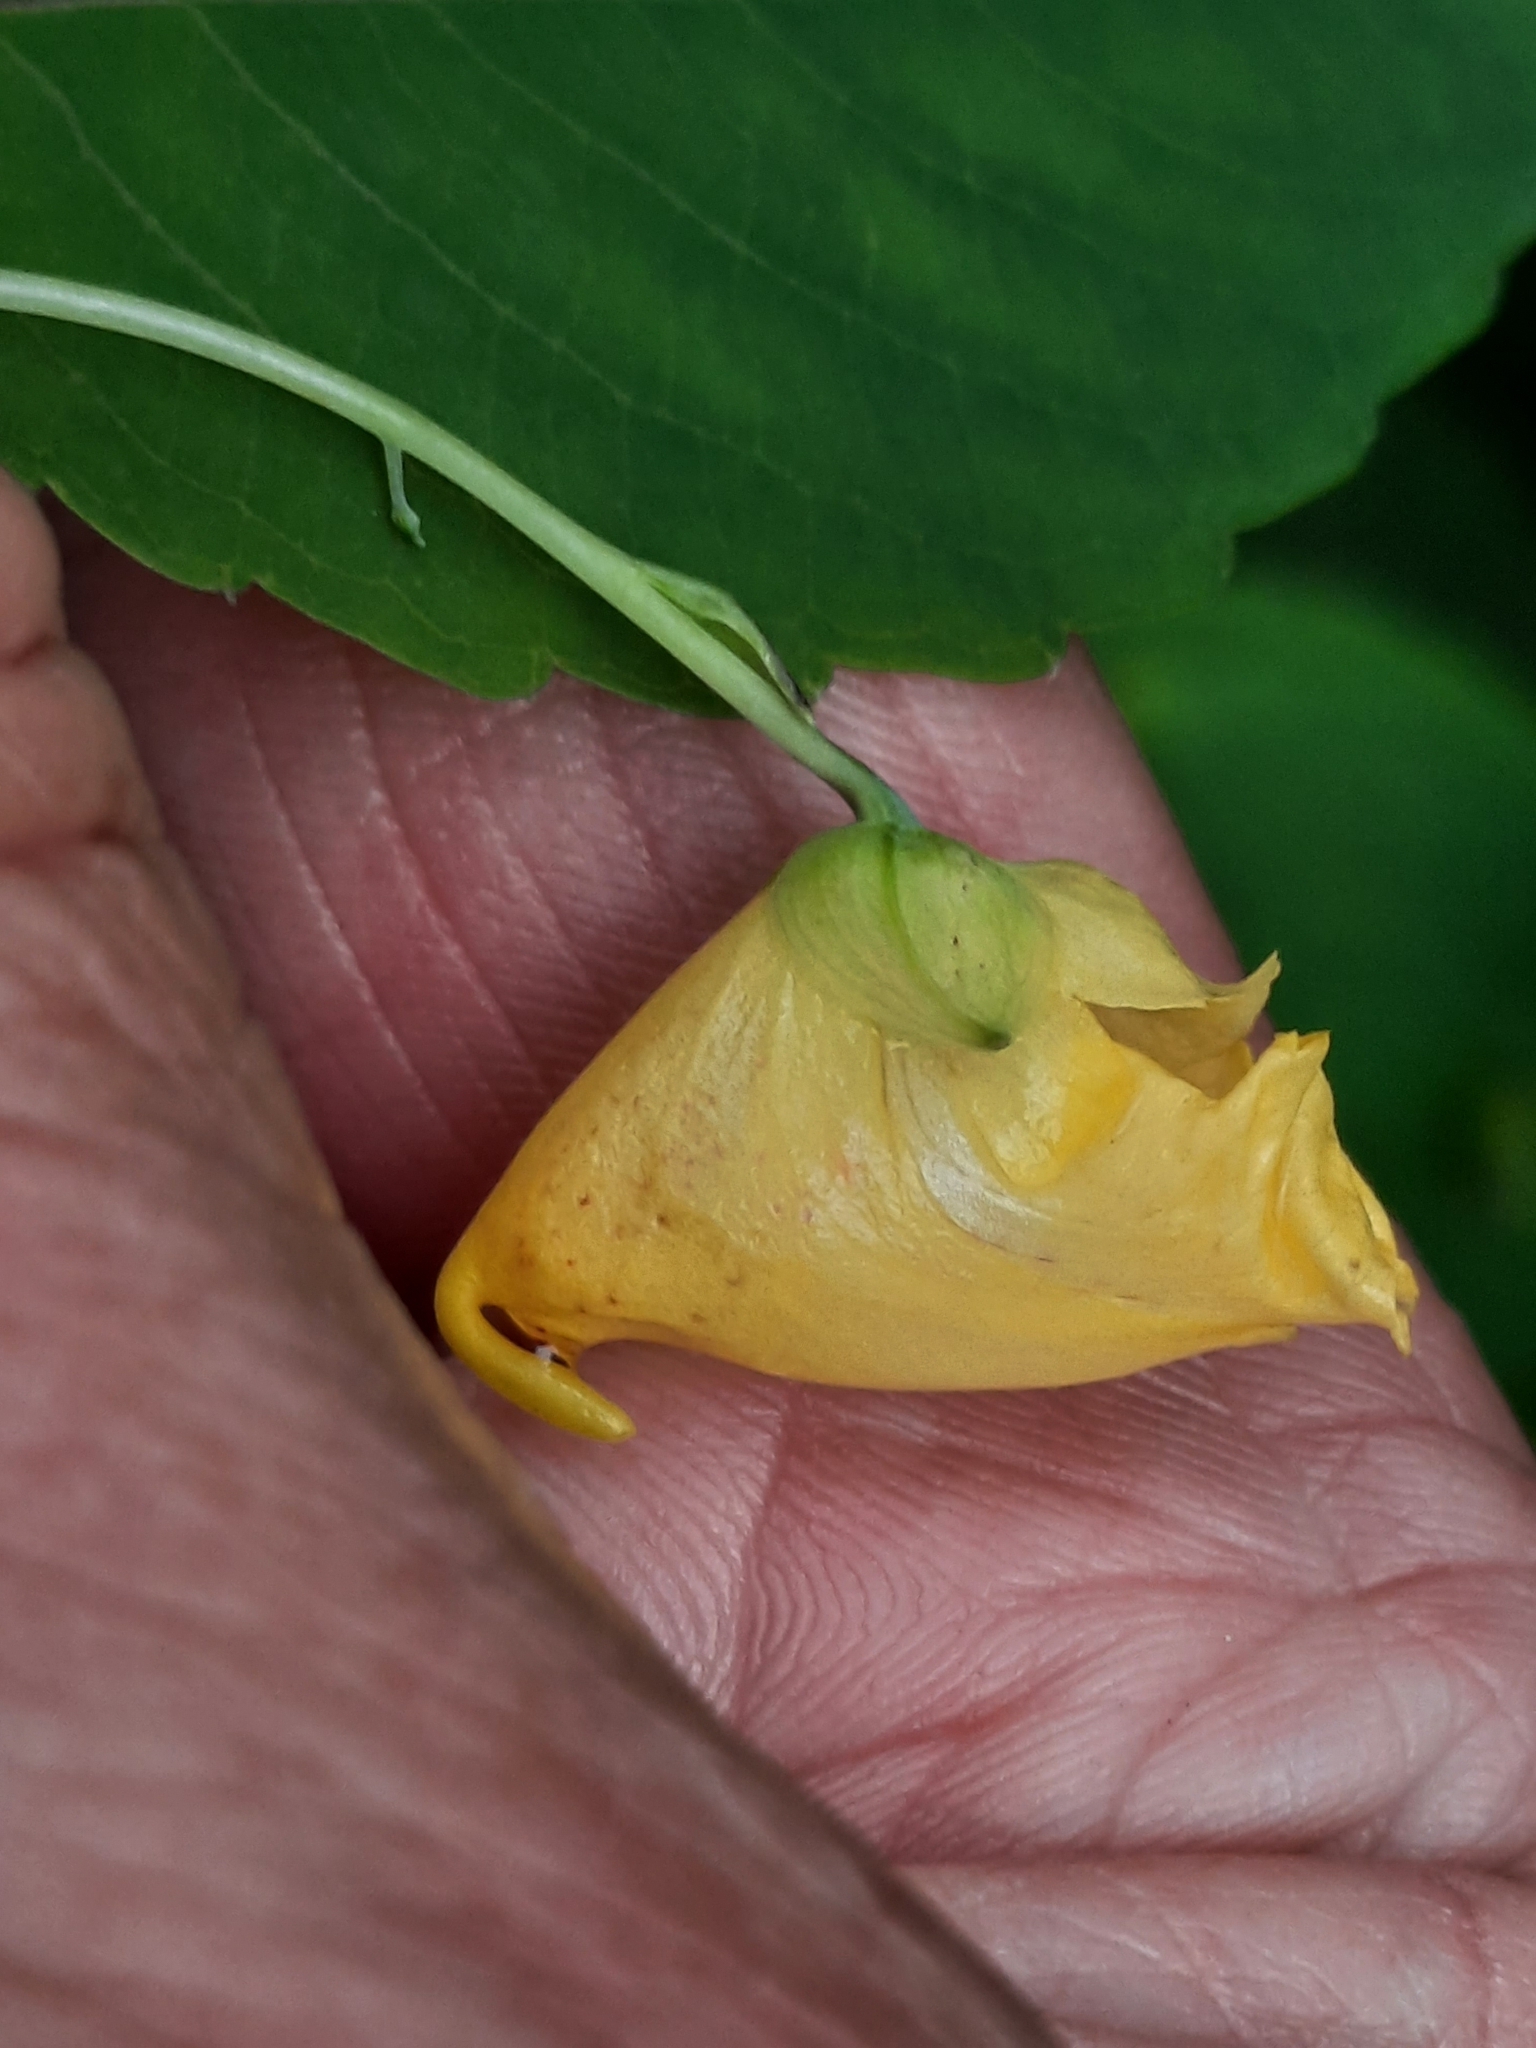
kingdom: Plantae
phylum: Tracheophyta
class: Magnoliopsida
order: Ericales
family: Balsaminaceae
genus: Impatiens
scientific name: Impatiens pallida
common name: Pale snapweed
